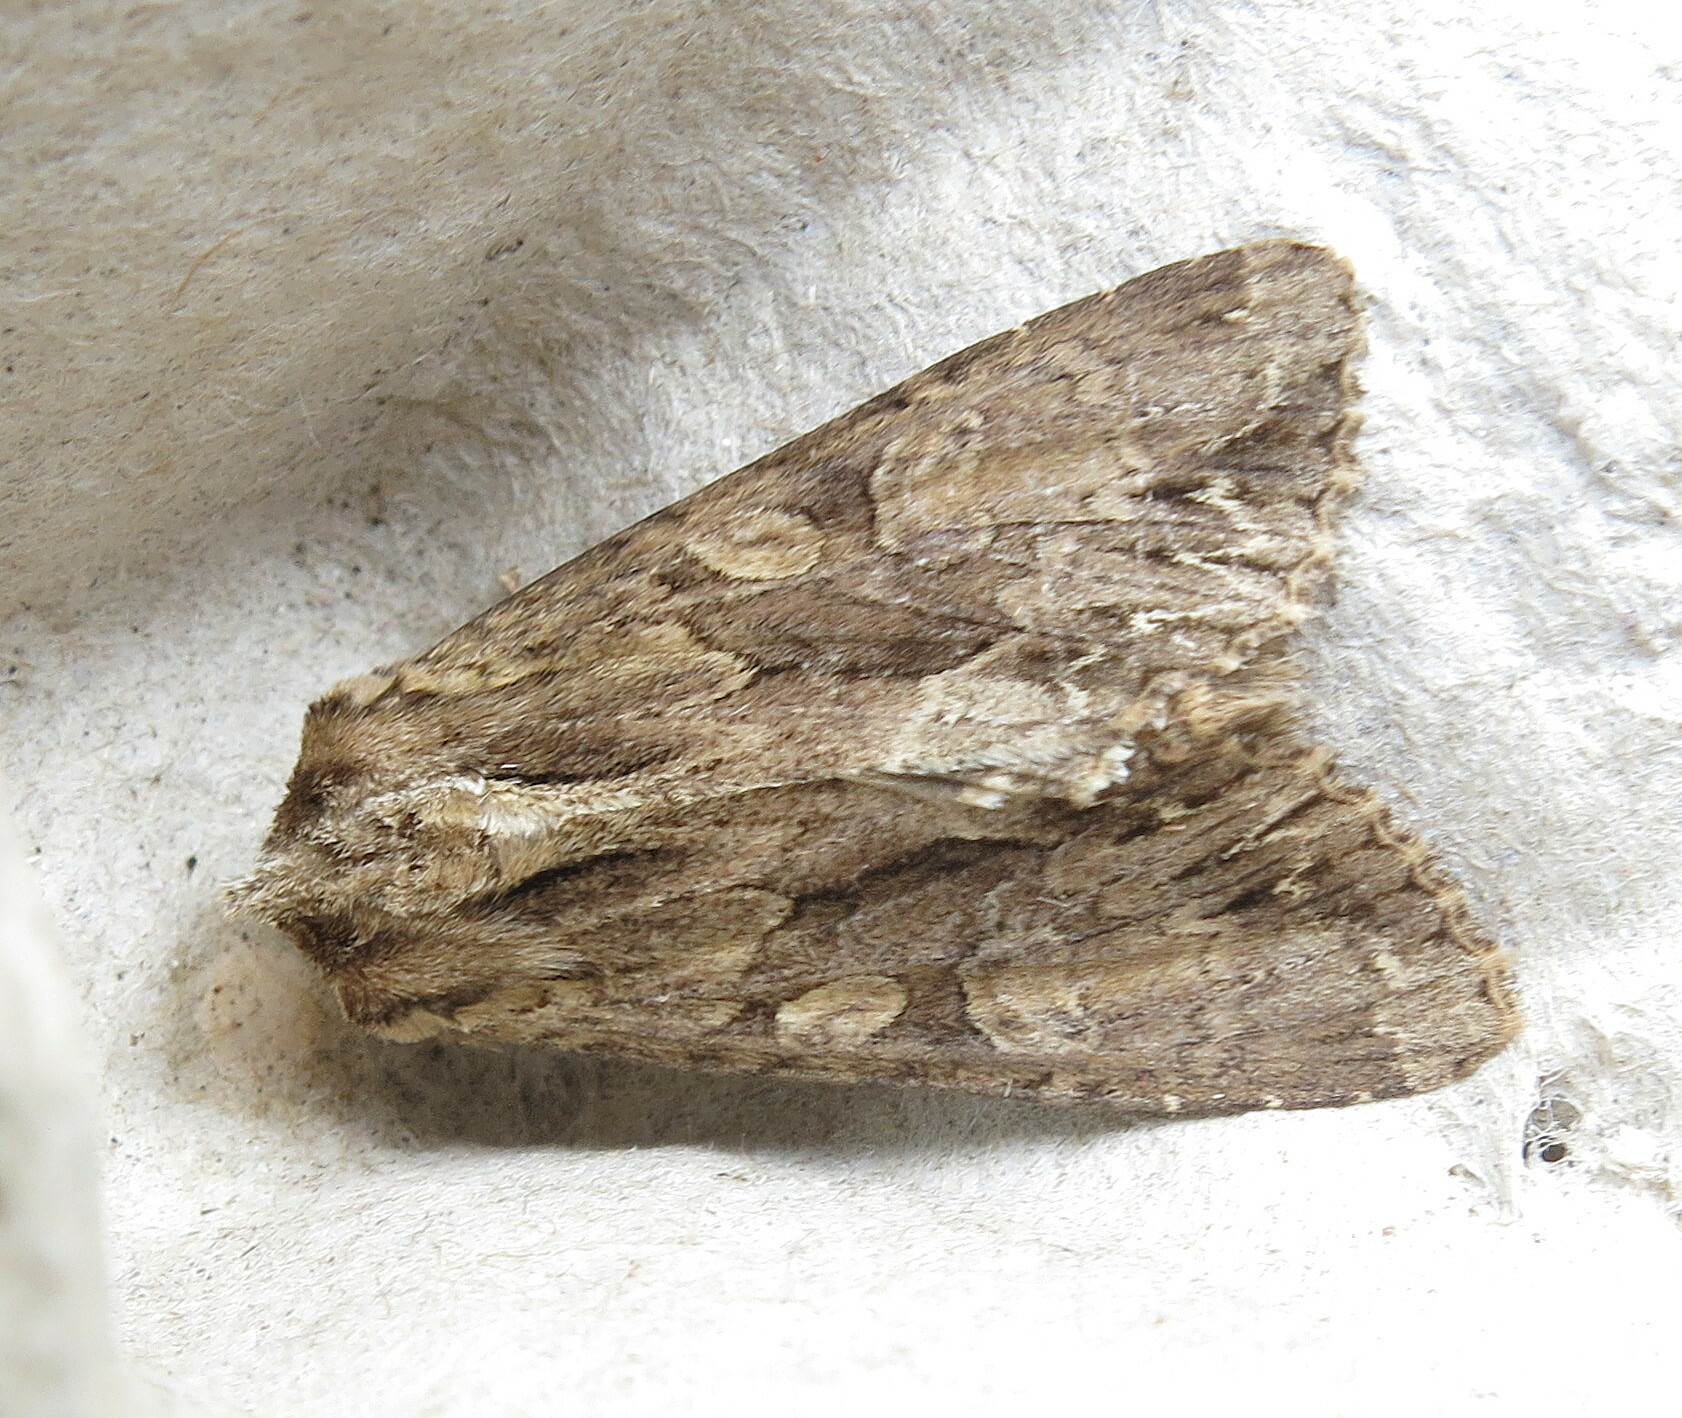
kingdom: Animalia
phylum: Arthropoda
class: Insecta
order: Lepidoptera
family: Noctuidae
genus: Apamea
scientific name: Apamea monoglypha
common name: Dark arches
